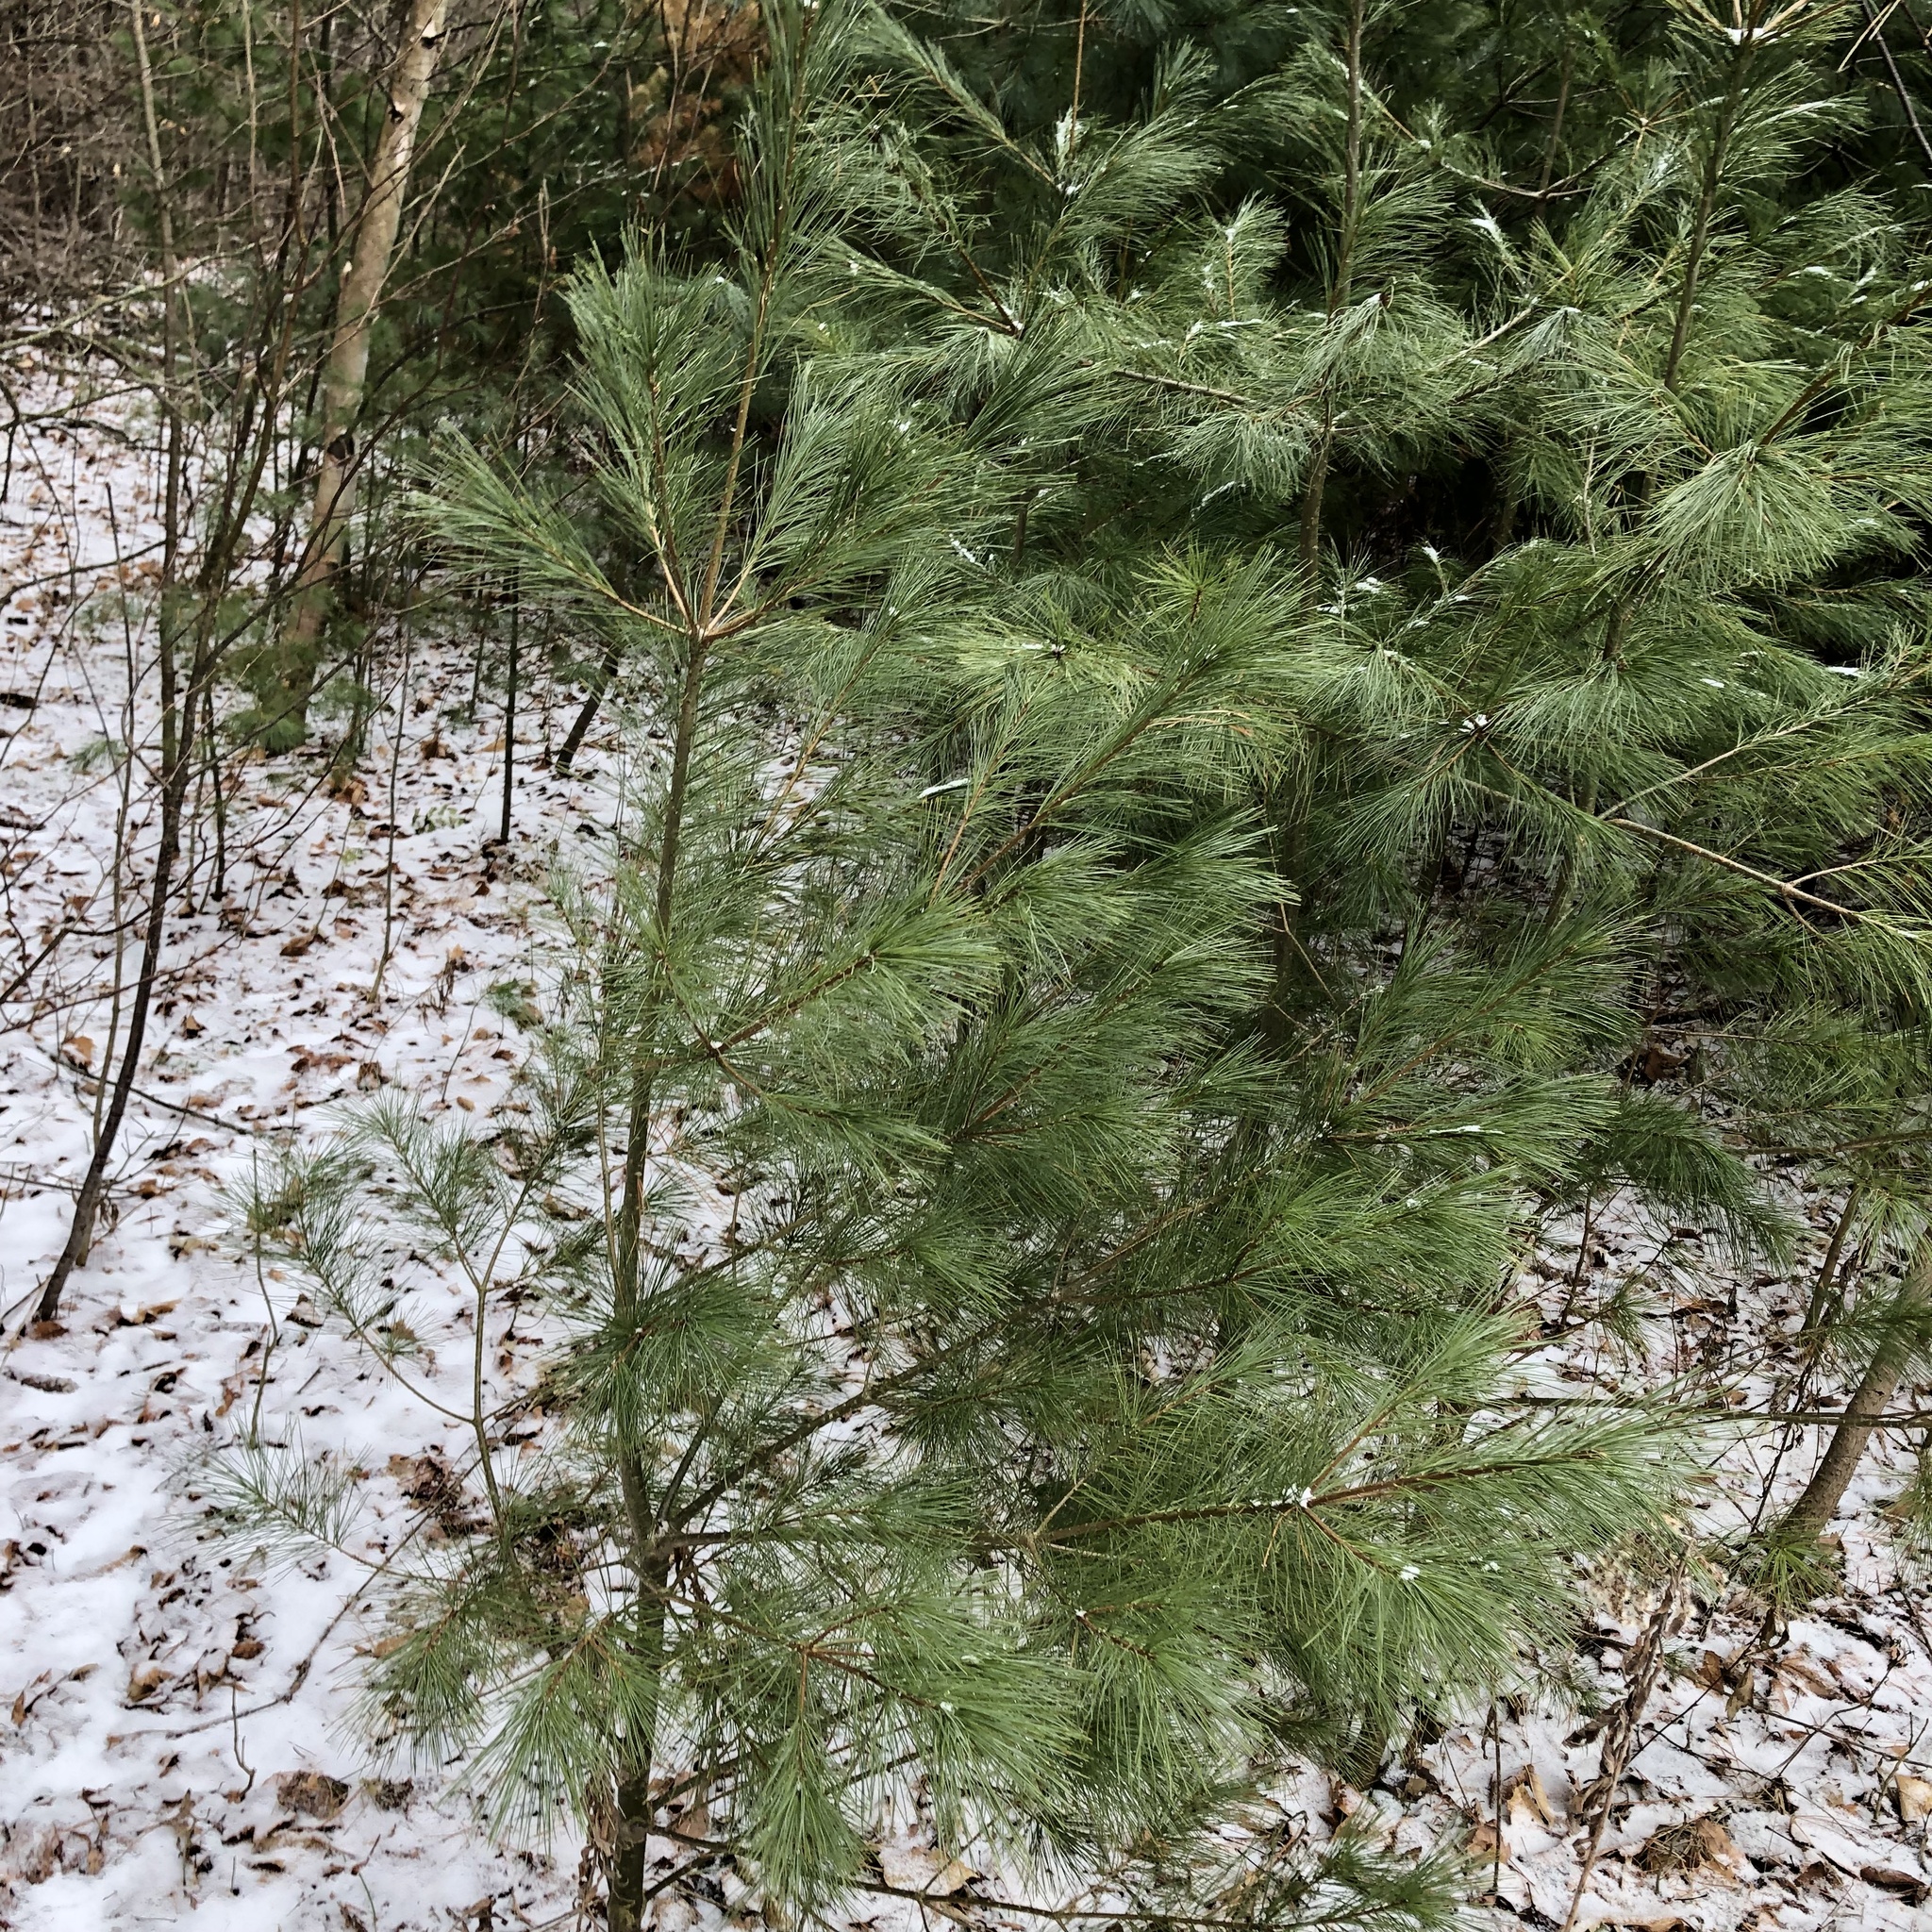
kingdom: Plantae
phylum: Tracheophyta
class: Pinopsida
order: Pinales
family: Pinaceae
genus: Pinus
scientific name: Pinus strobus
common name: Weymouth pine
